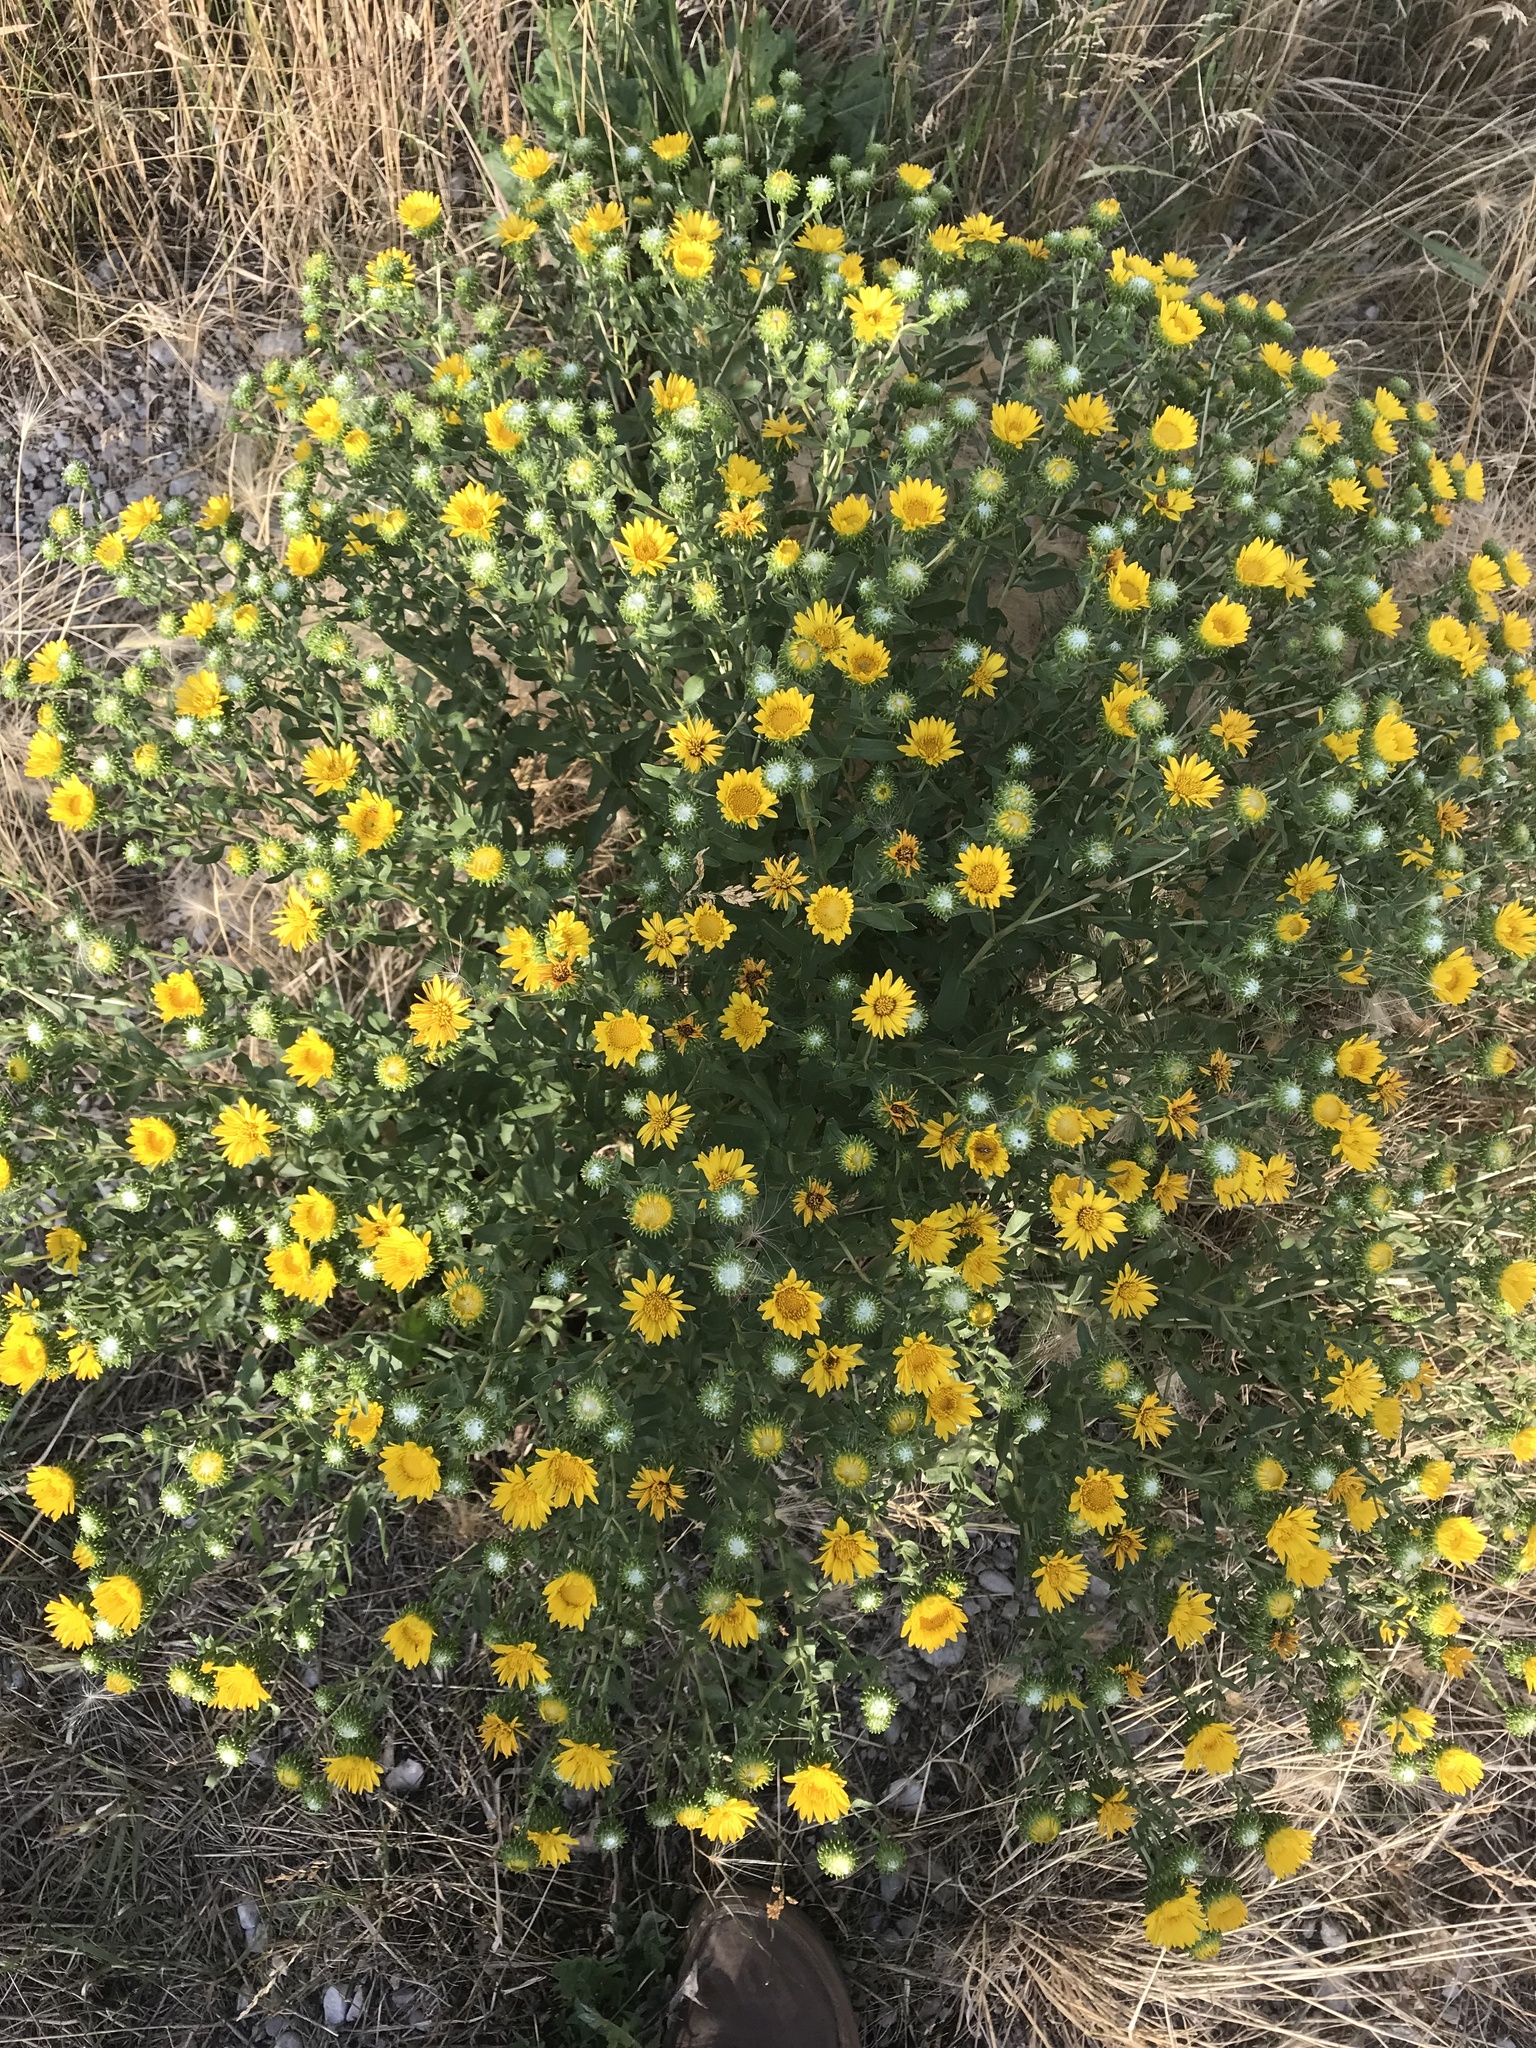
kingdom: Plantae
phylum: Tracheophyta
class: Magnoliopsida
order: Asterales
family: Asteraceae
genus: Grindelia
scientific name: Grindelia squarrosa
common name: Curly-cup gumweed
